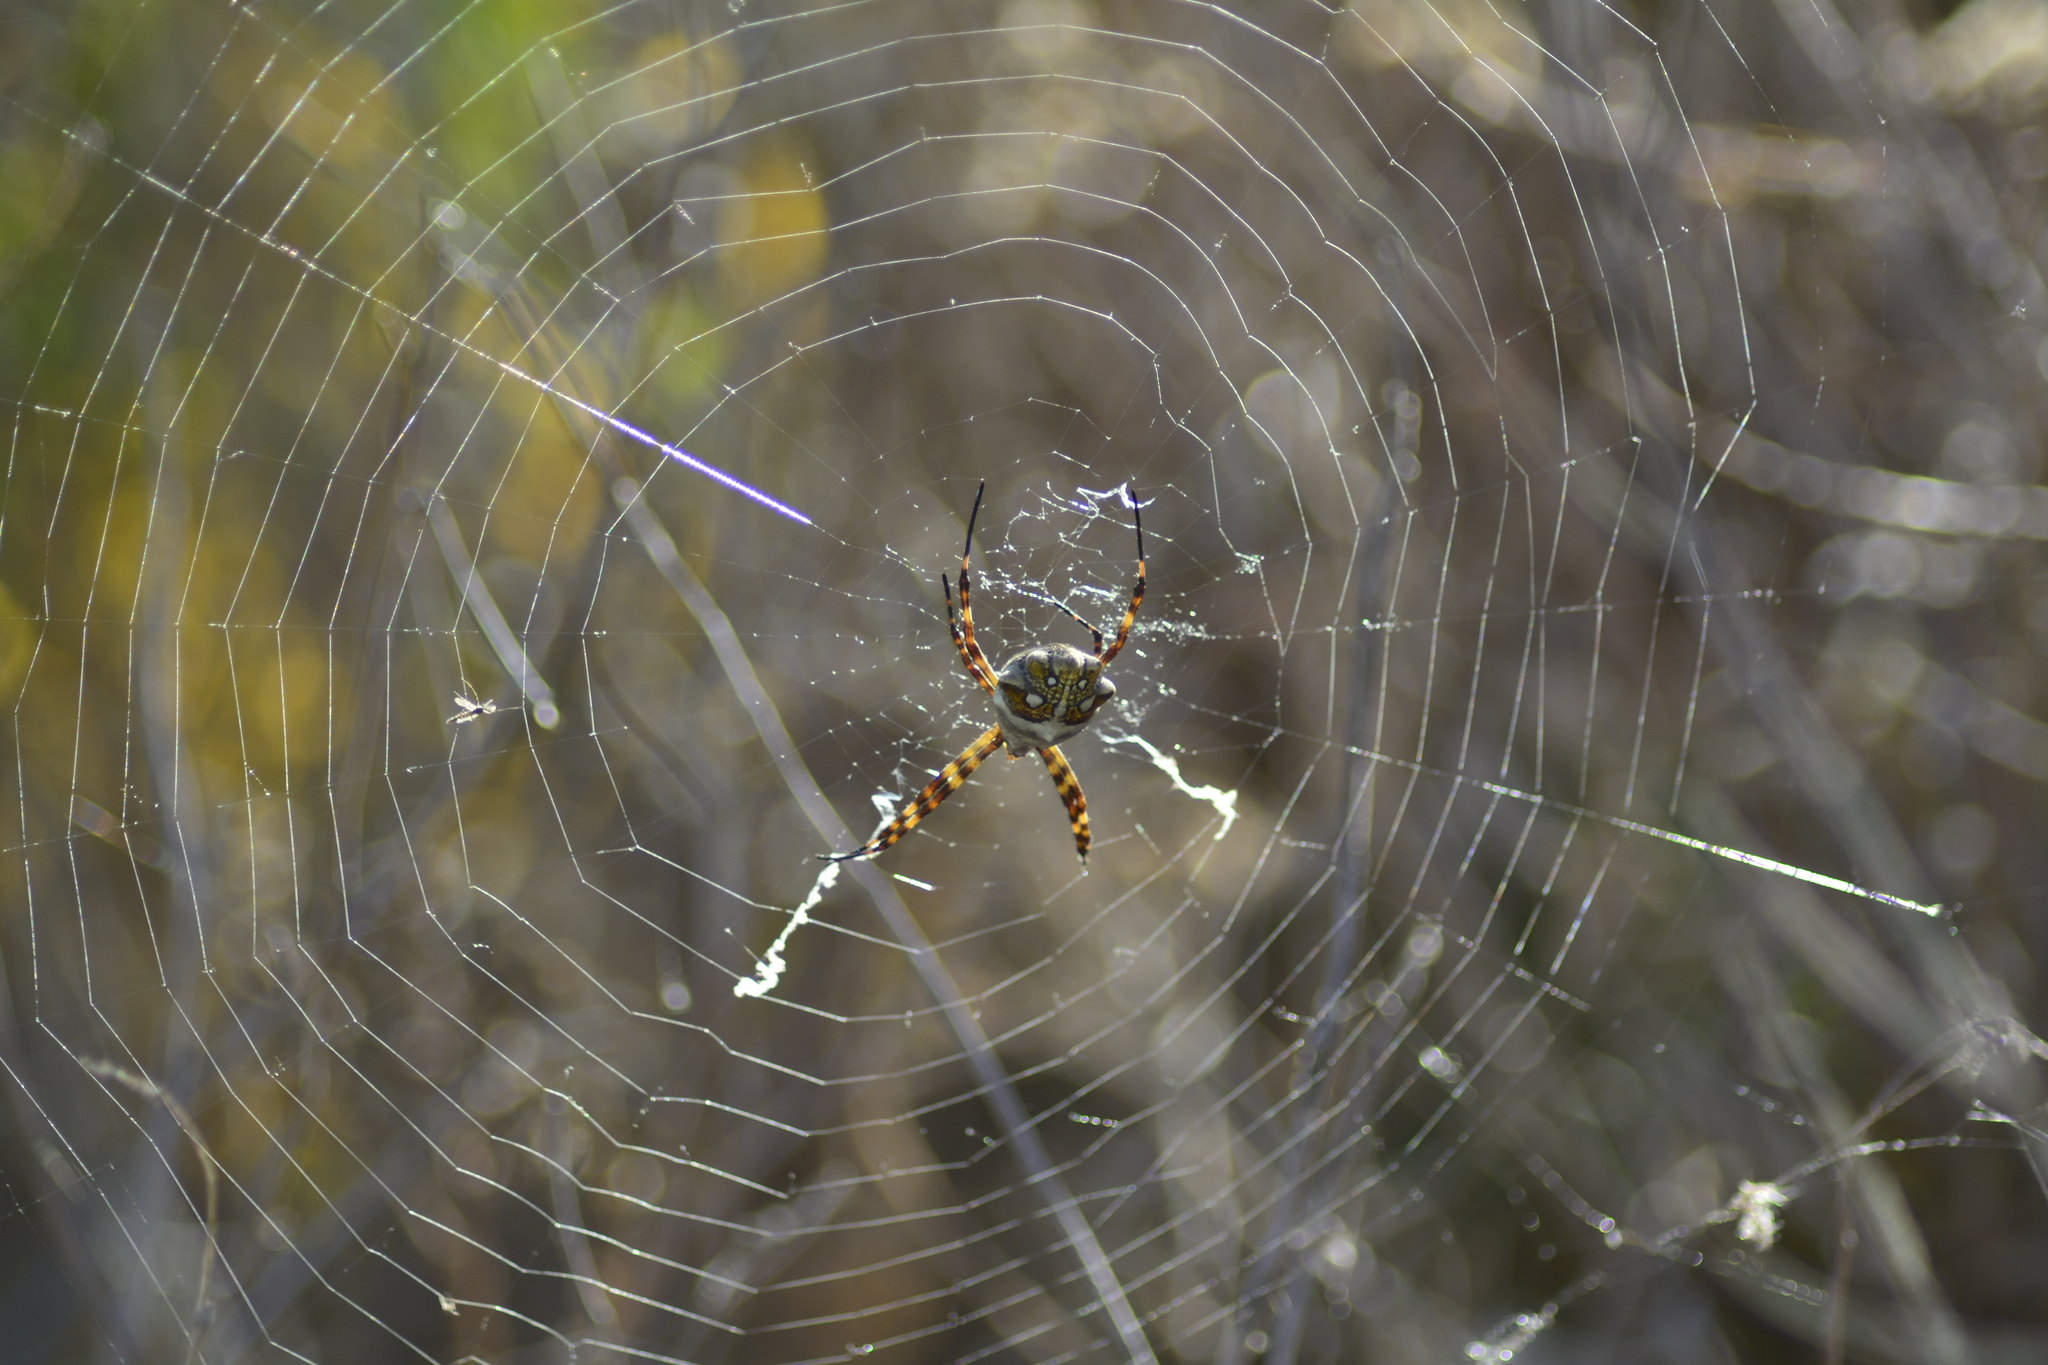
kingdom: Animalia
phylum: Arthropoda
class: Arachnida
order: Araneae
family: Araneidae
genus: Argiope
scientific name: Argiope argentata
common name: Orb weavers
